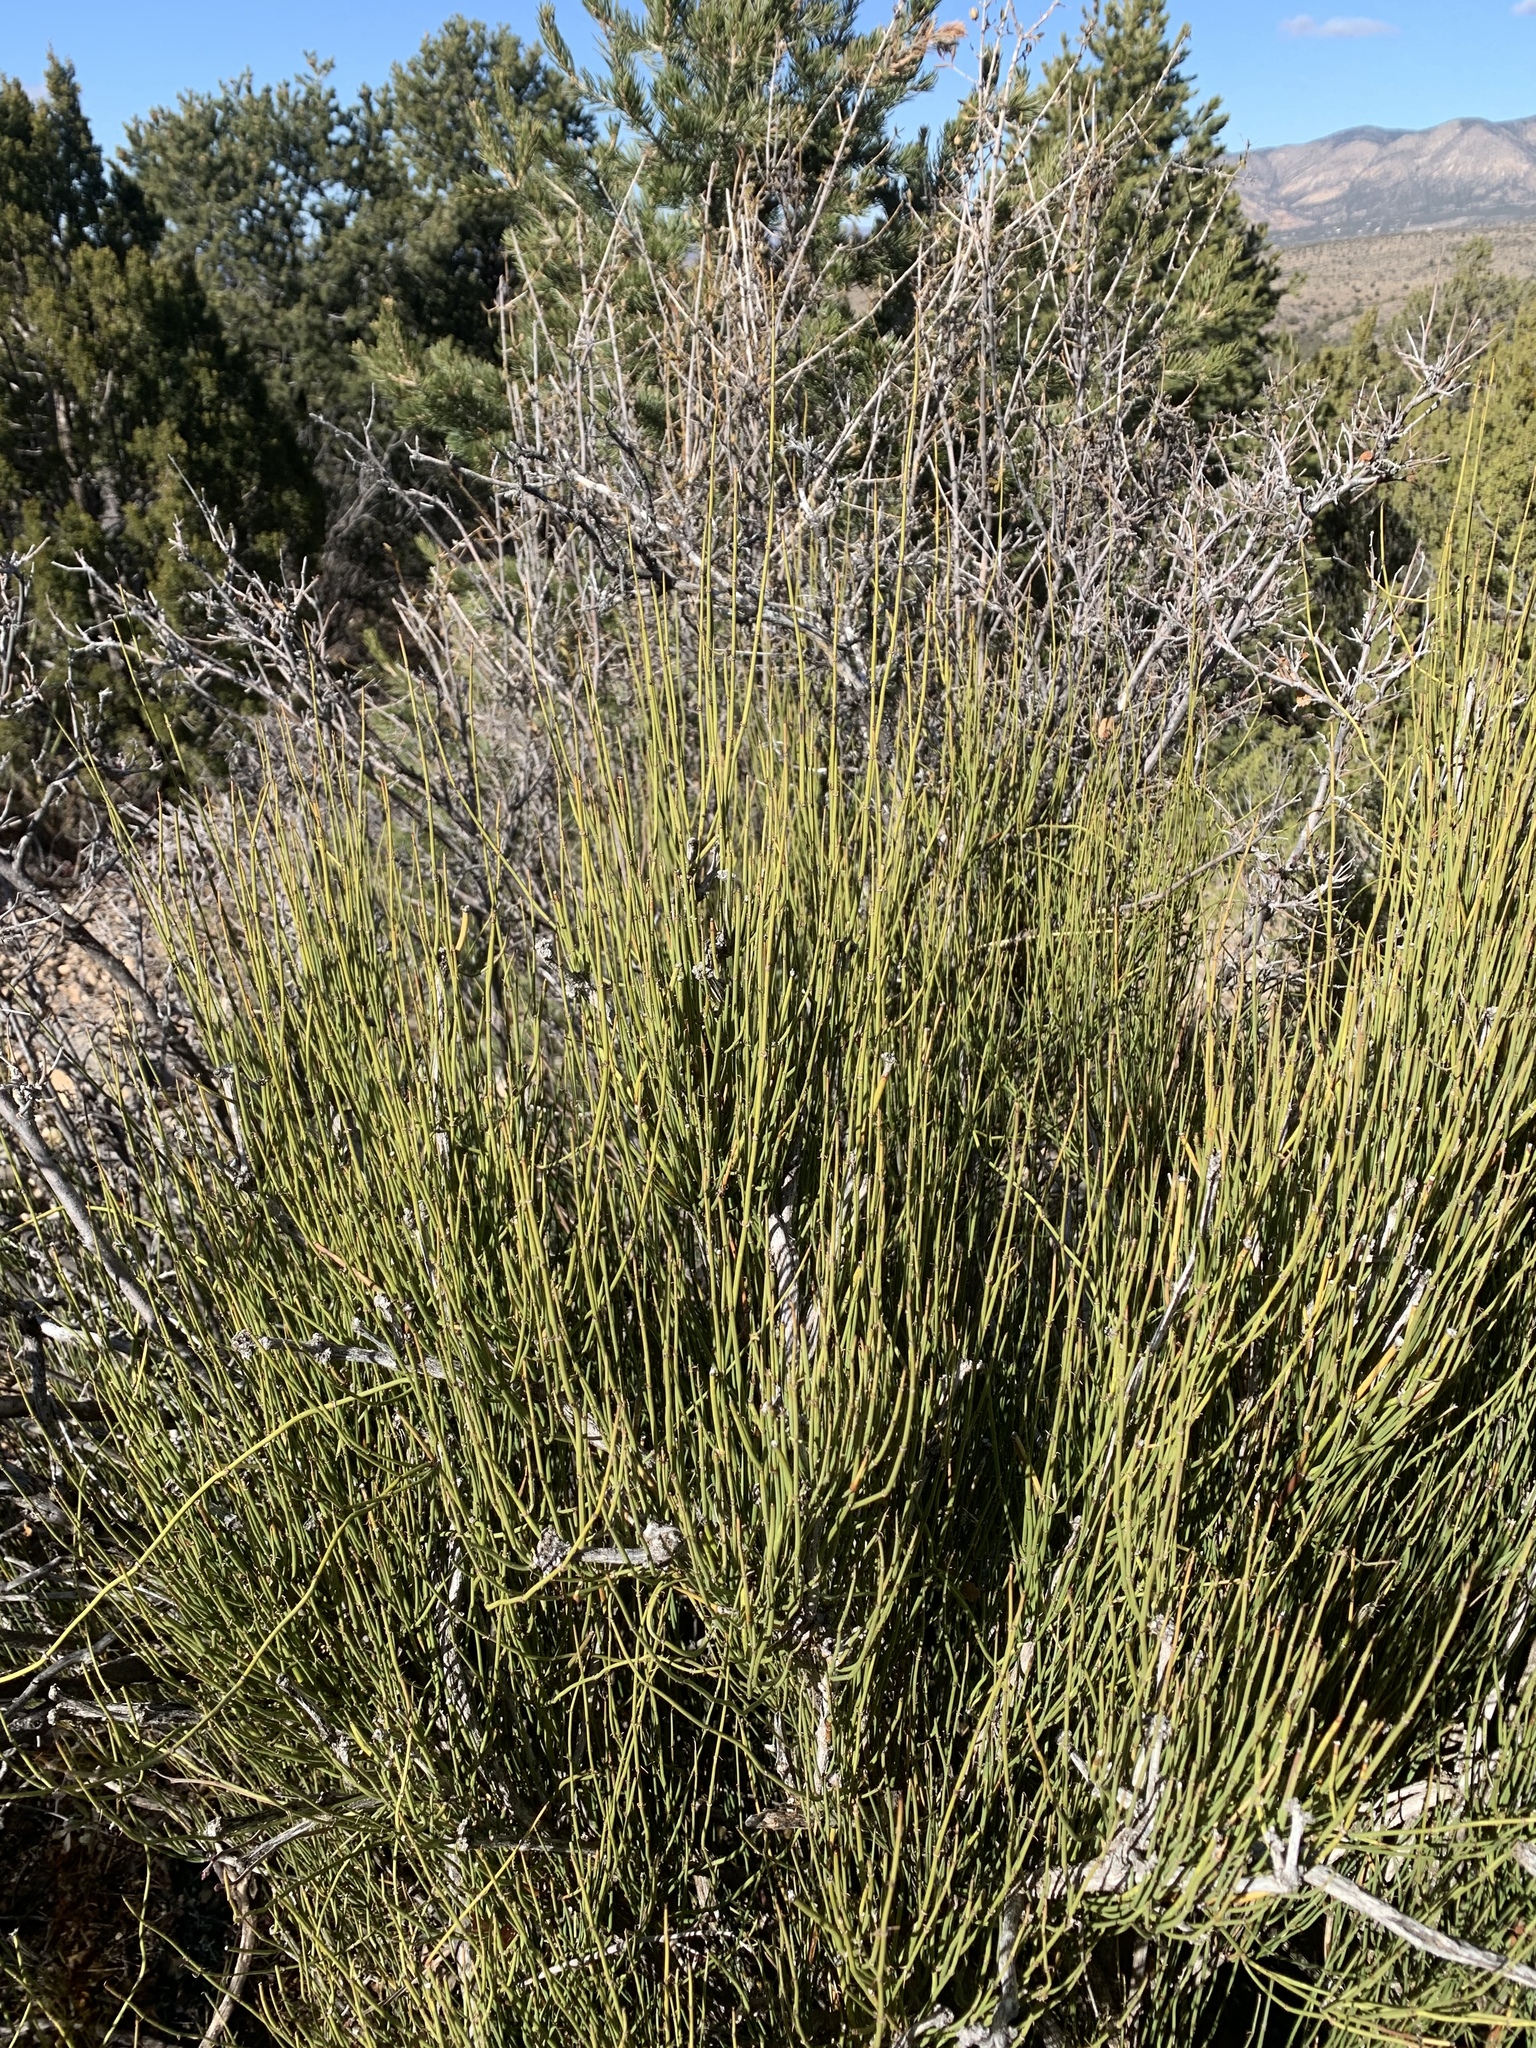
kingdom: Plantae
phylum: Tracheophyta
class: Gnetopsida
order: Ephedrales
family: Ephedraceae
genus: Ephedra
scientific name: Ephedra trifurca
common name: Mexican-tea
